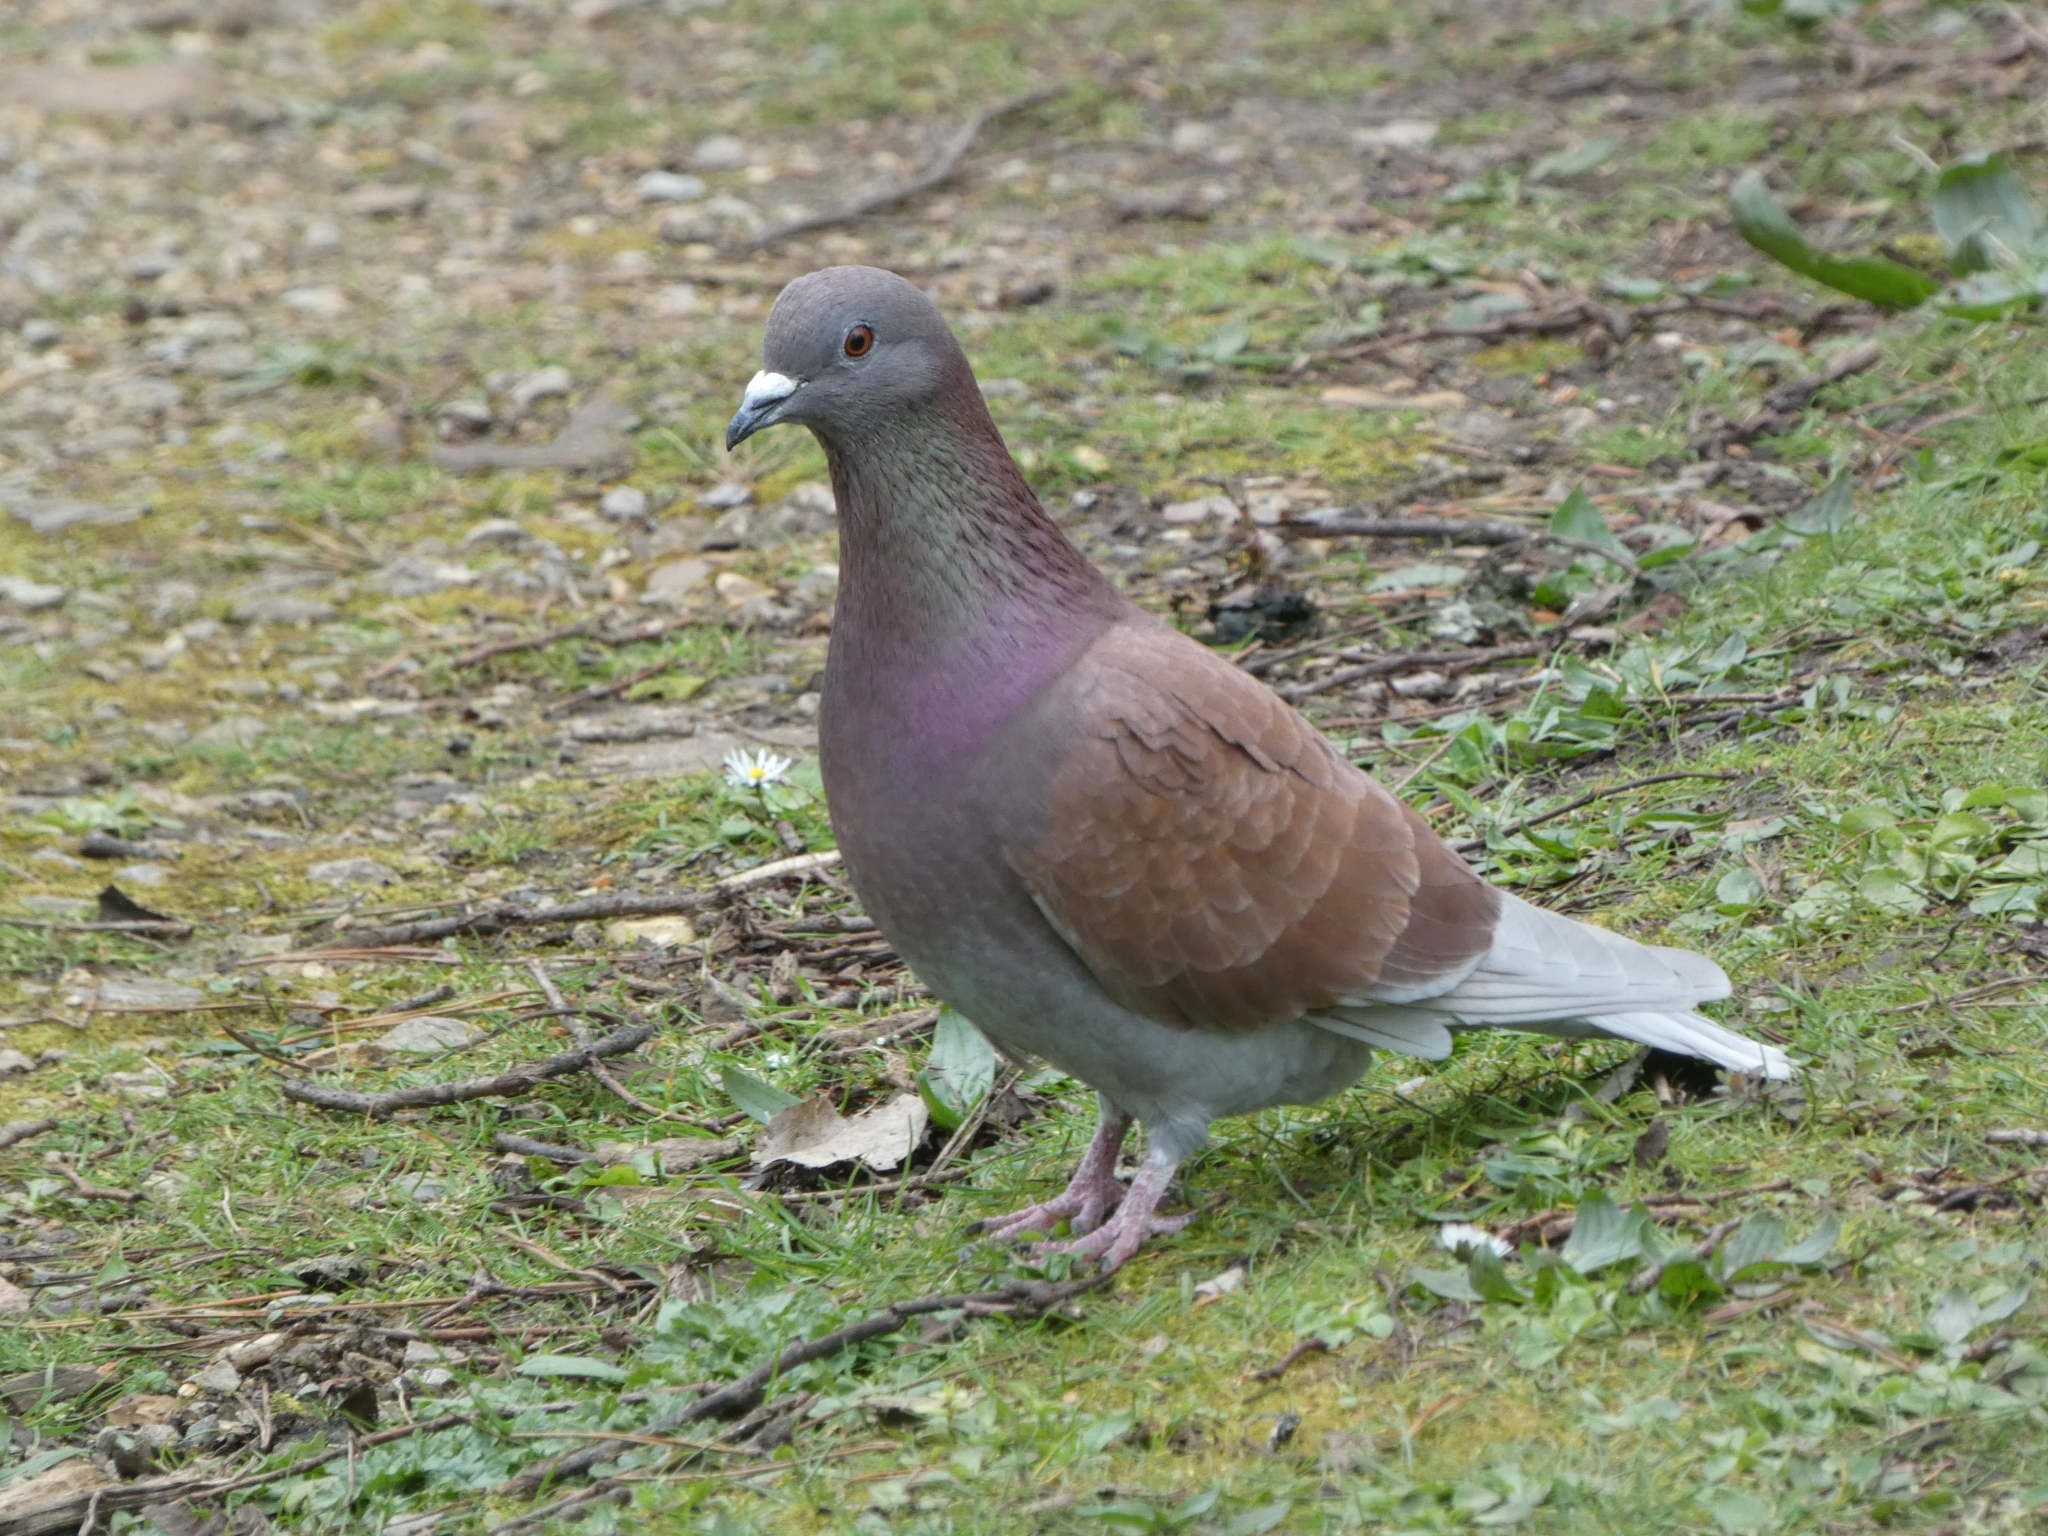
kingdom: Animalia
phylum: Chordata
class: Aves
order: Columbiformes
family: Columbidae
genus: Columba
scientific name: Columba livia
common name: Rock pigeon
